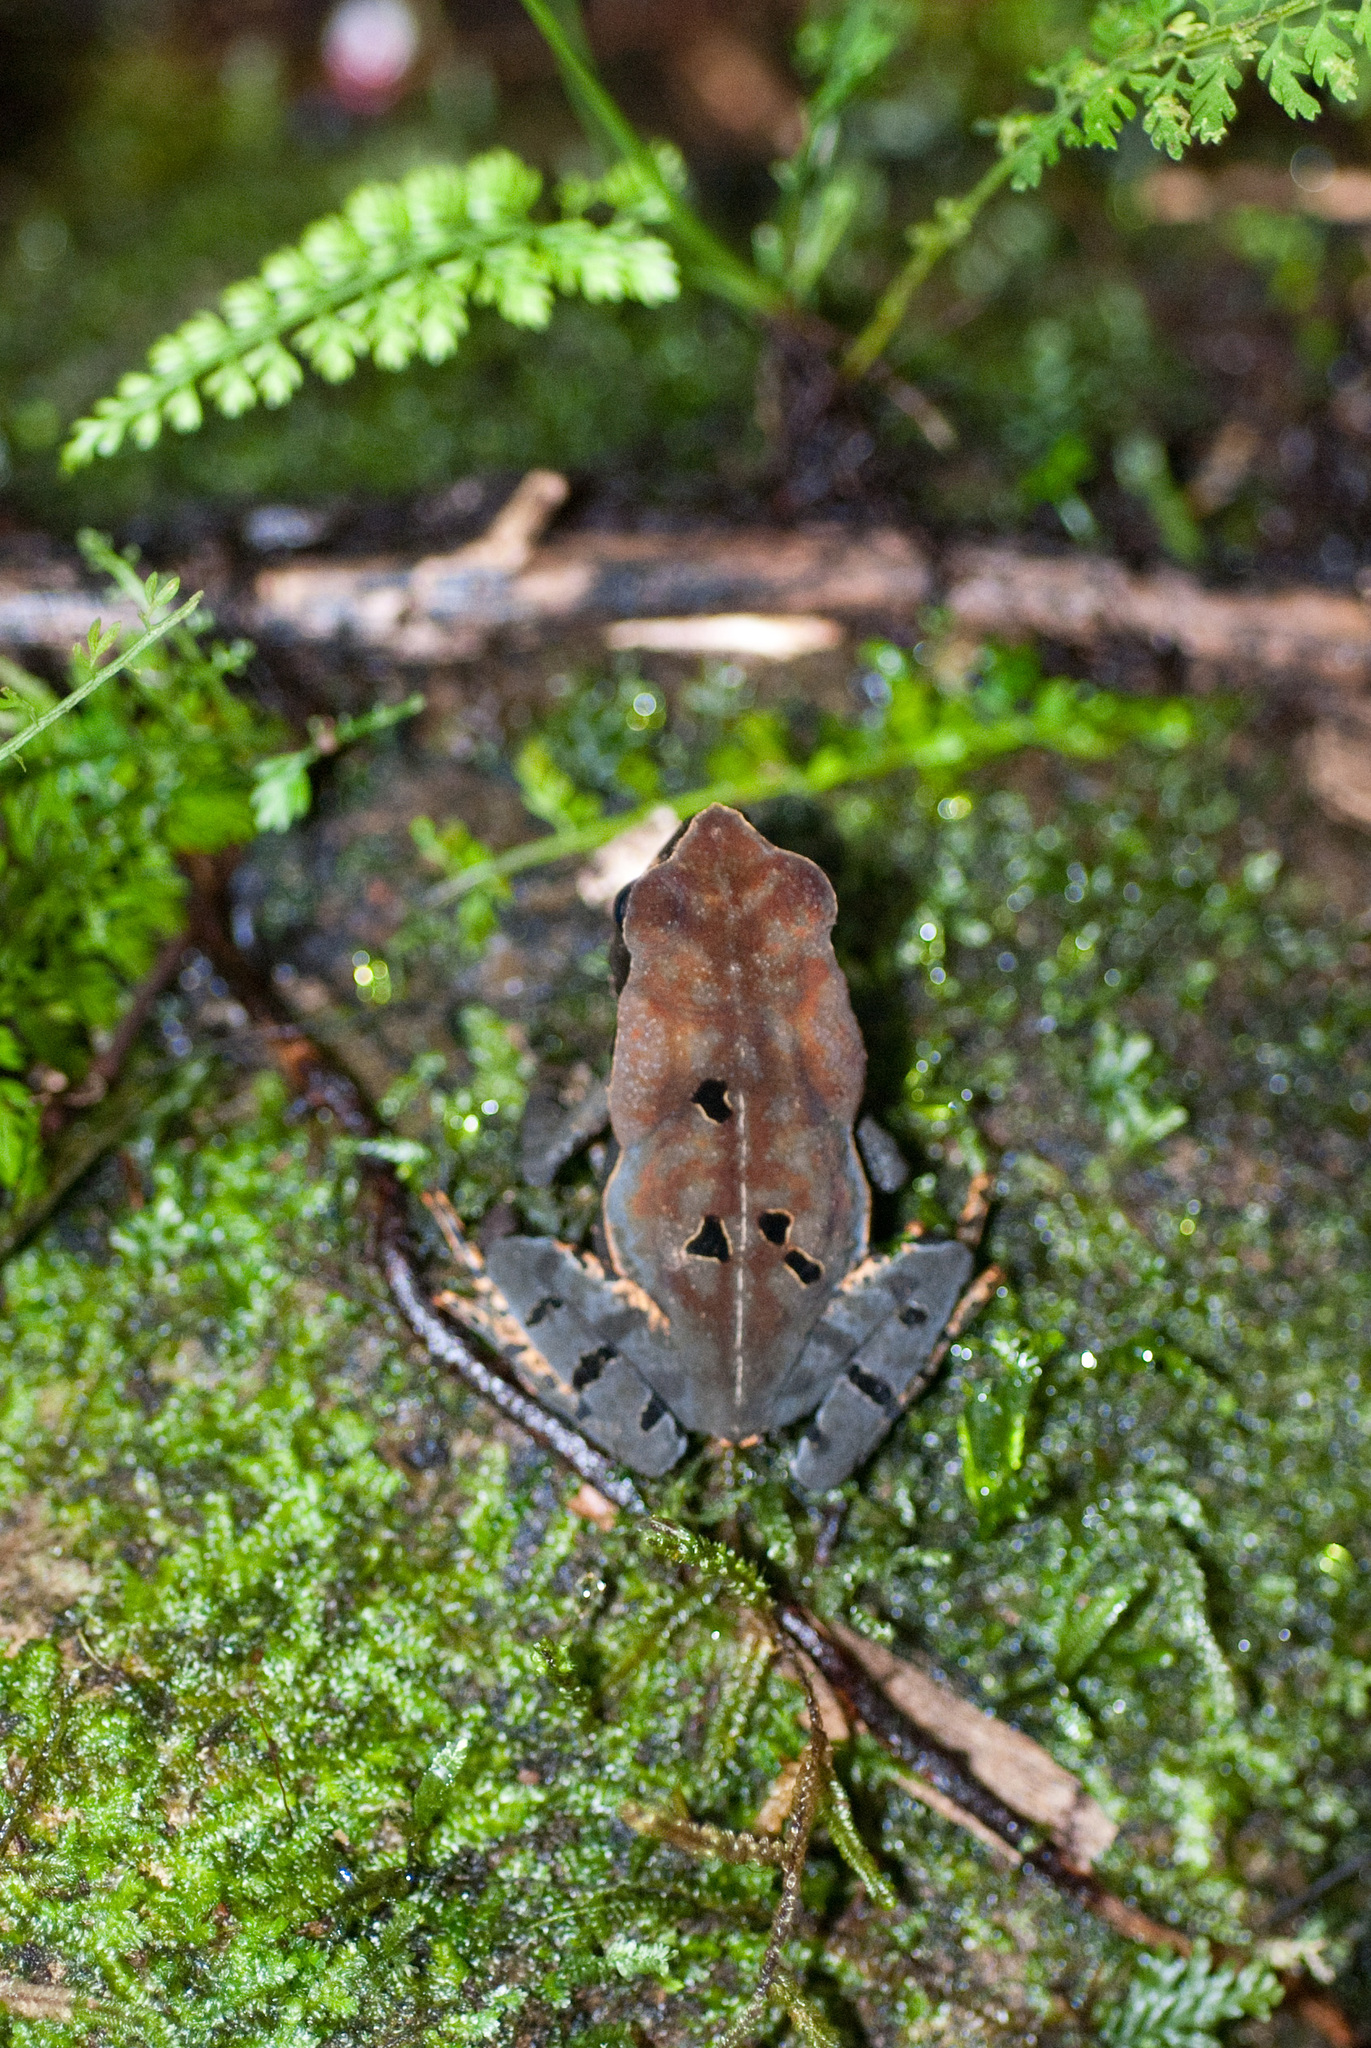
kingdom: Animalia
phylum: Chordata
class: Amphibia
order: Anura
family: Bufonidae
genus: Rhaebo
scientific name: Rhaebo haematiticus
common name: Truando toad
